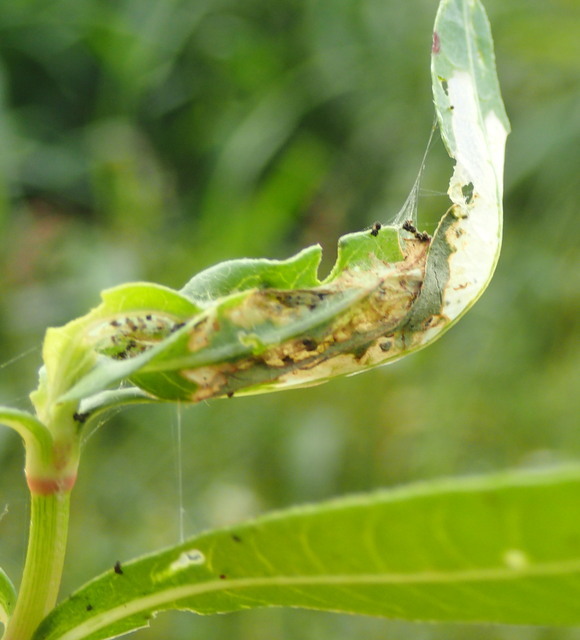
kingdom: Animalia
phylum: Arthropoda
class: Insecta
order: Coleoptera
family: Chrysomelidae
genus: Agasicles
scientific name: Agasicles hygrophila
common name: Alligatorweed flea beetle
